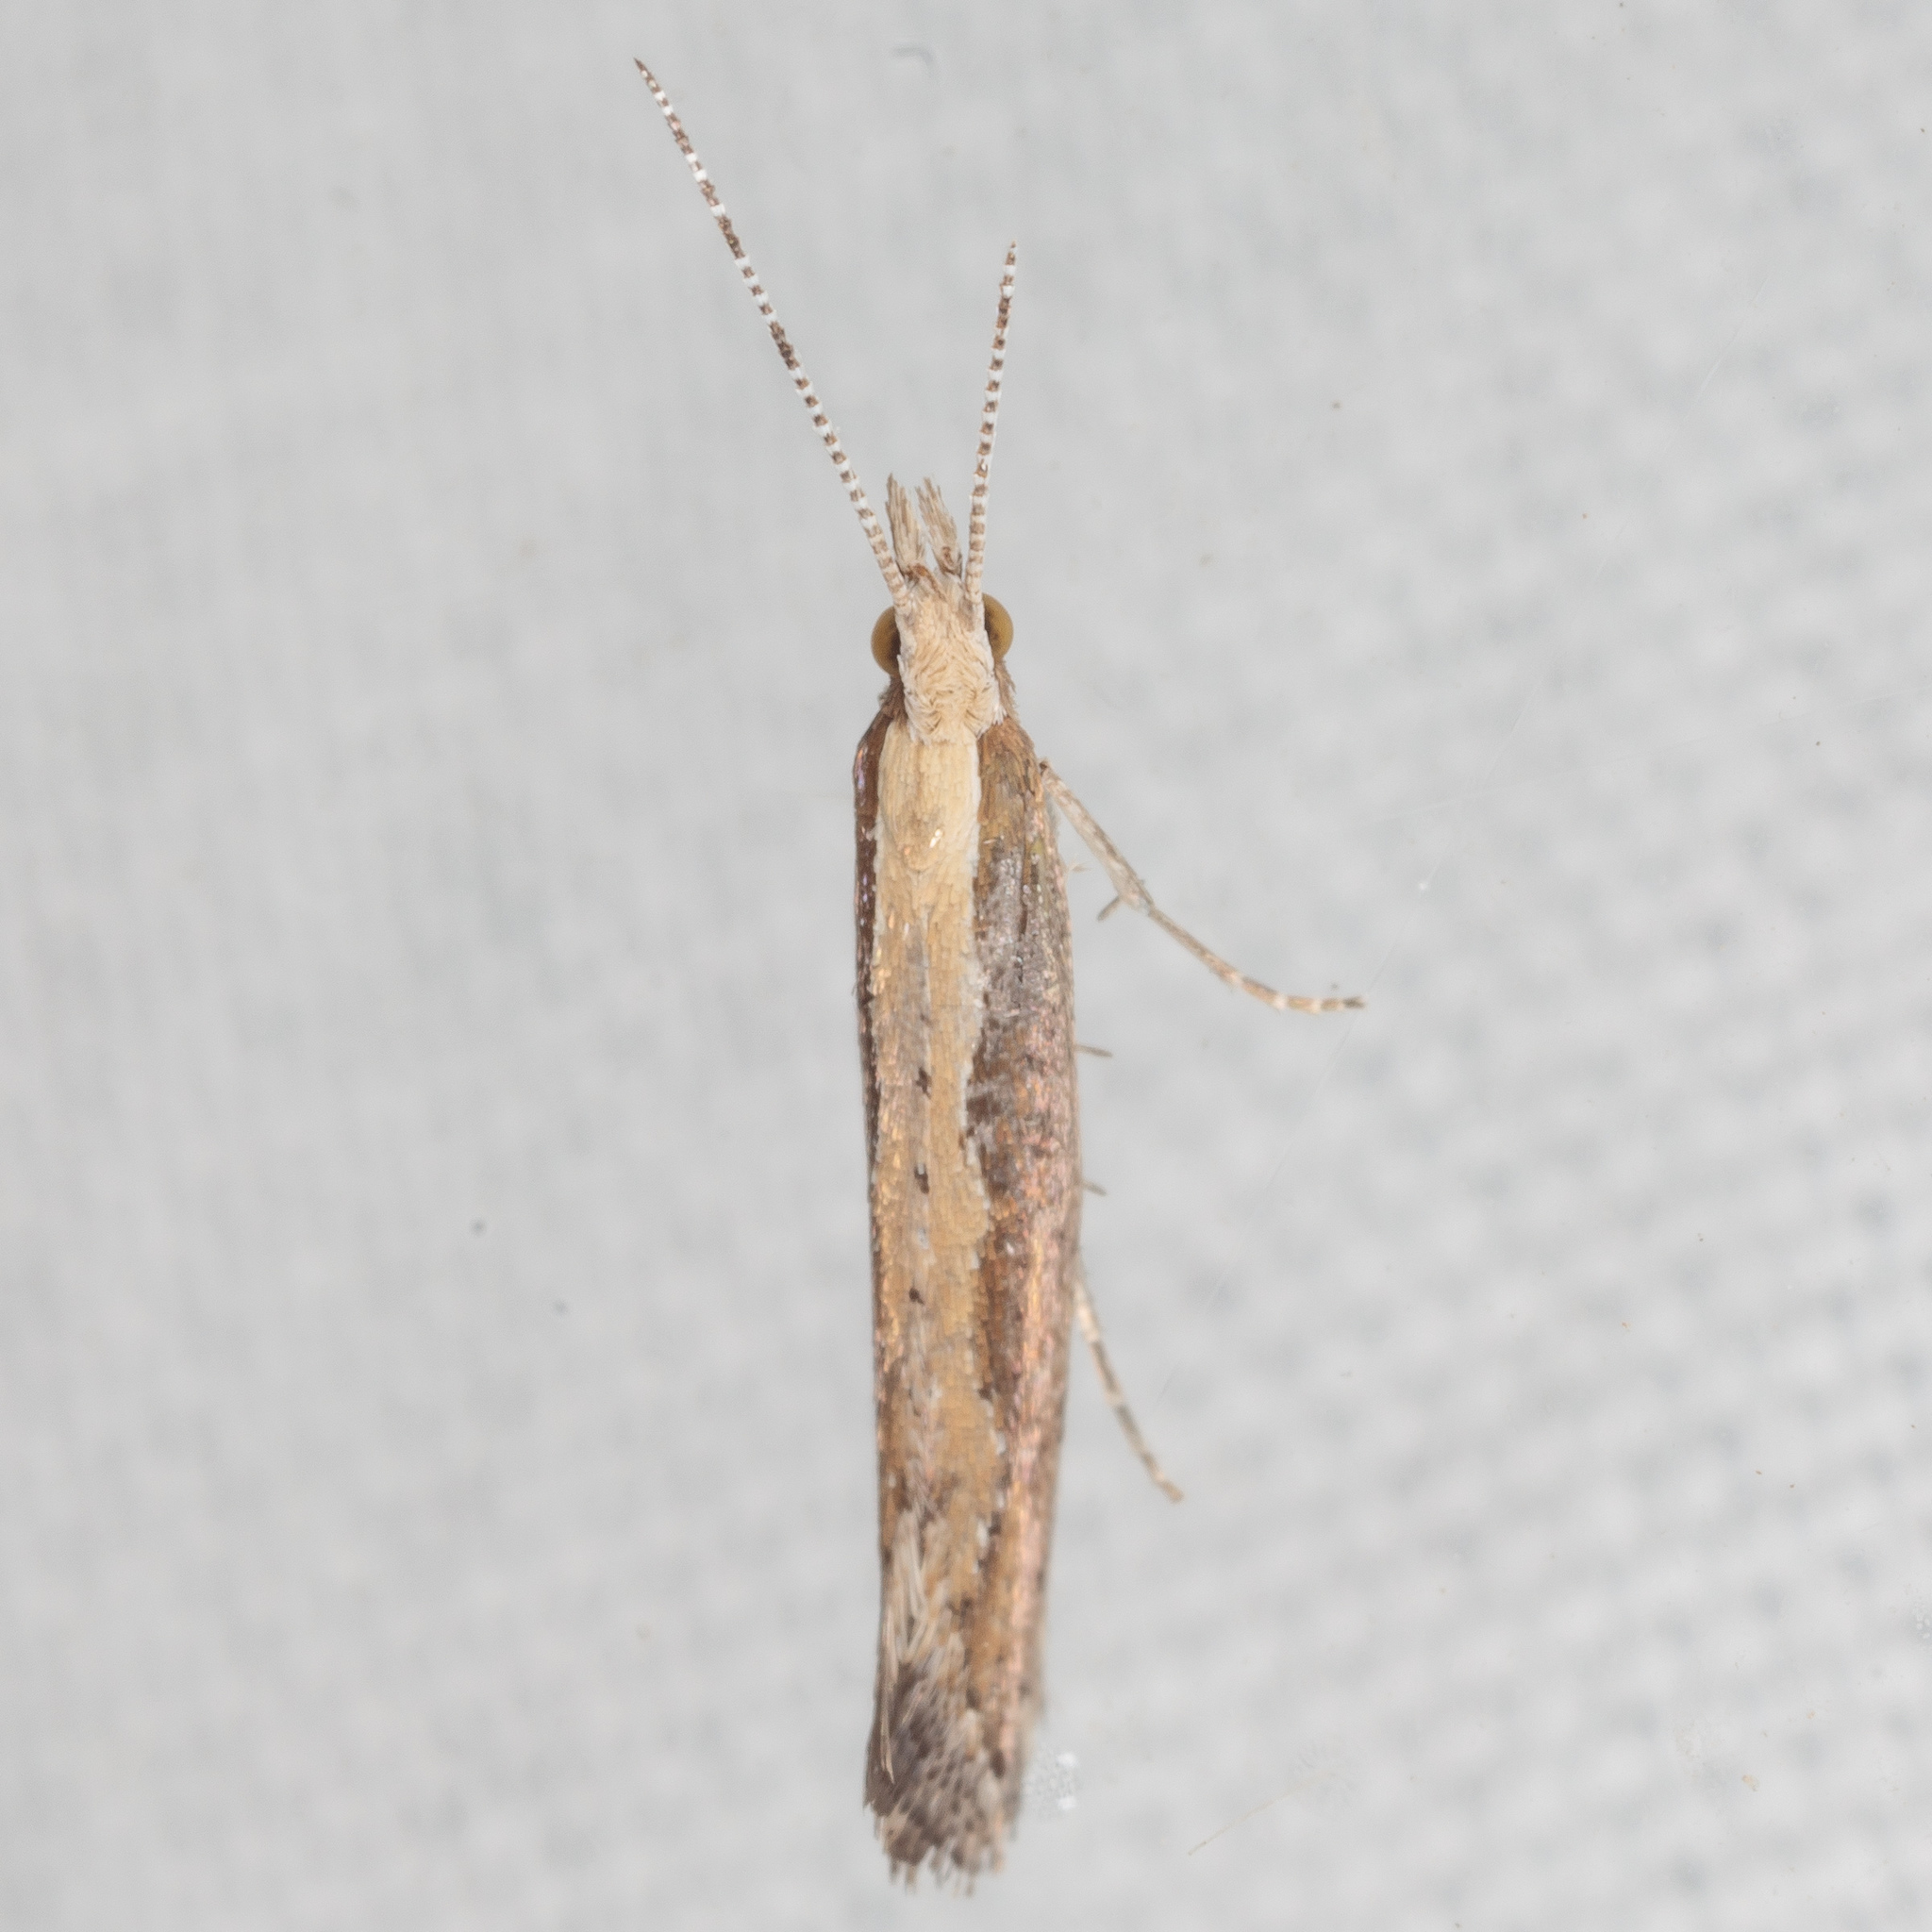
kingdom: Animalia
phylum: Arthropoda
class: Insecta
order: Lepidoptera
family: Plutellidae
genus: Plutella
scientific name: Plutella xylostella
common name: Diamond-back moth
